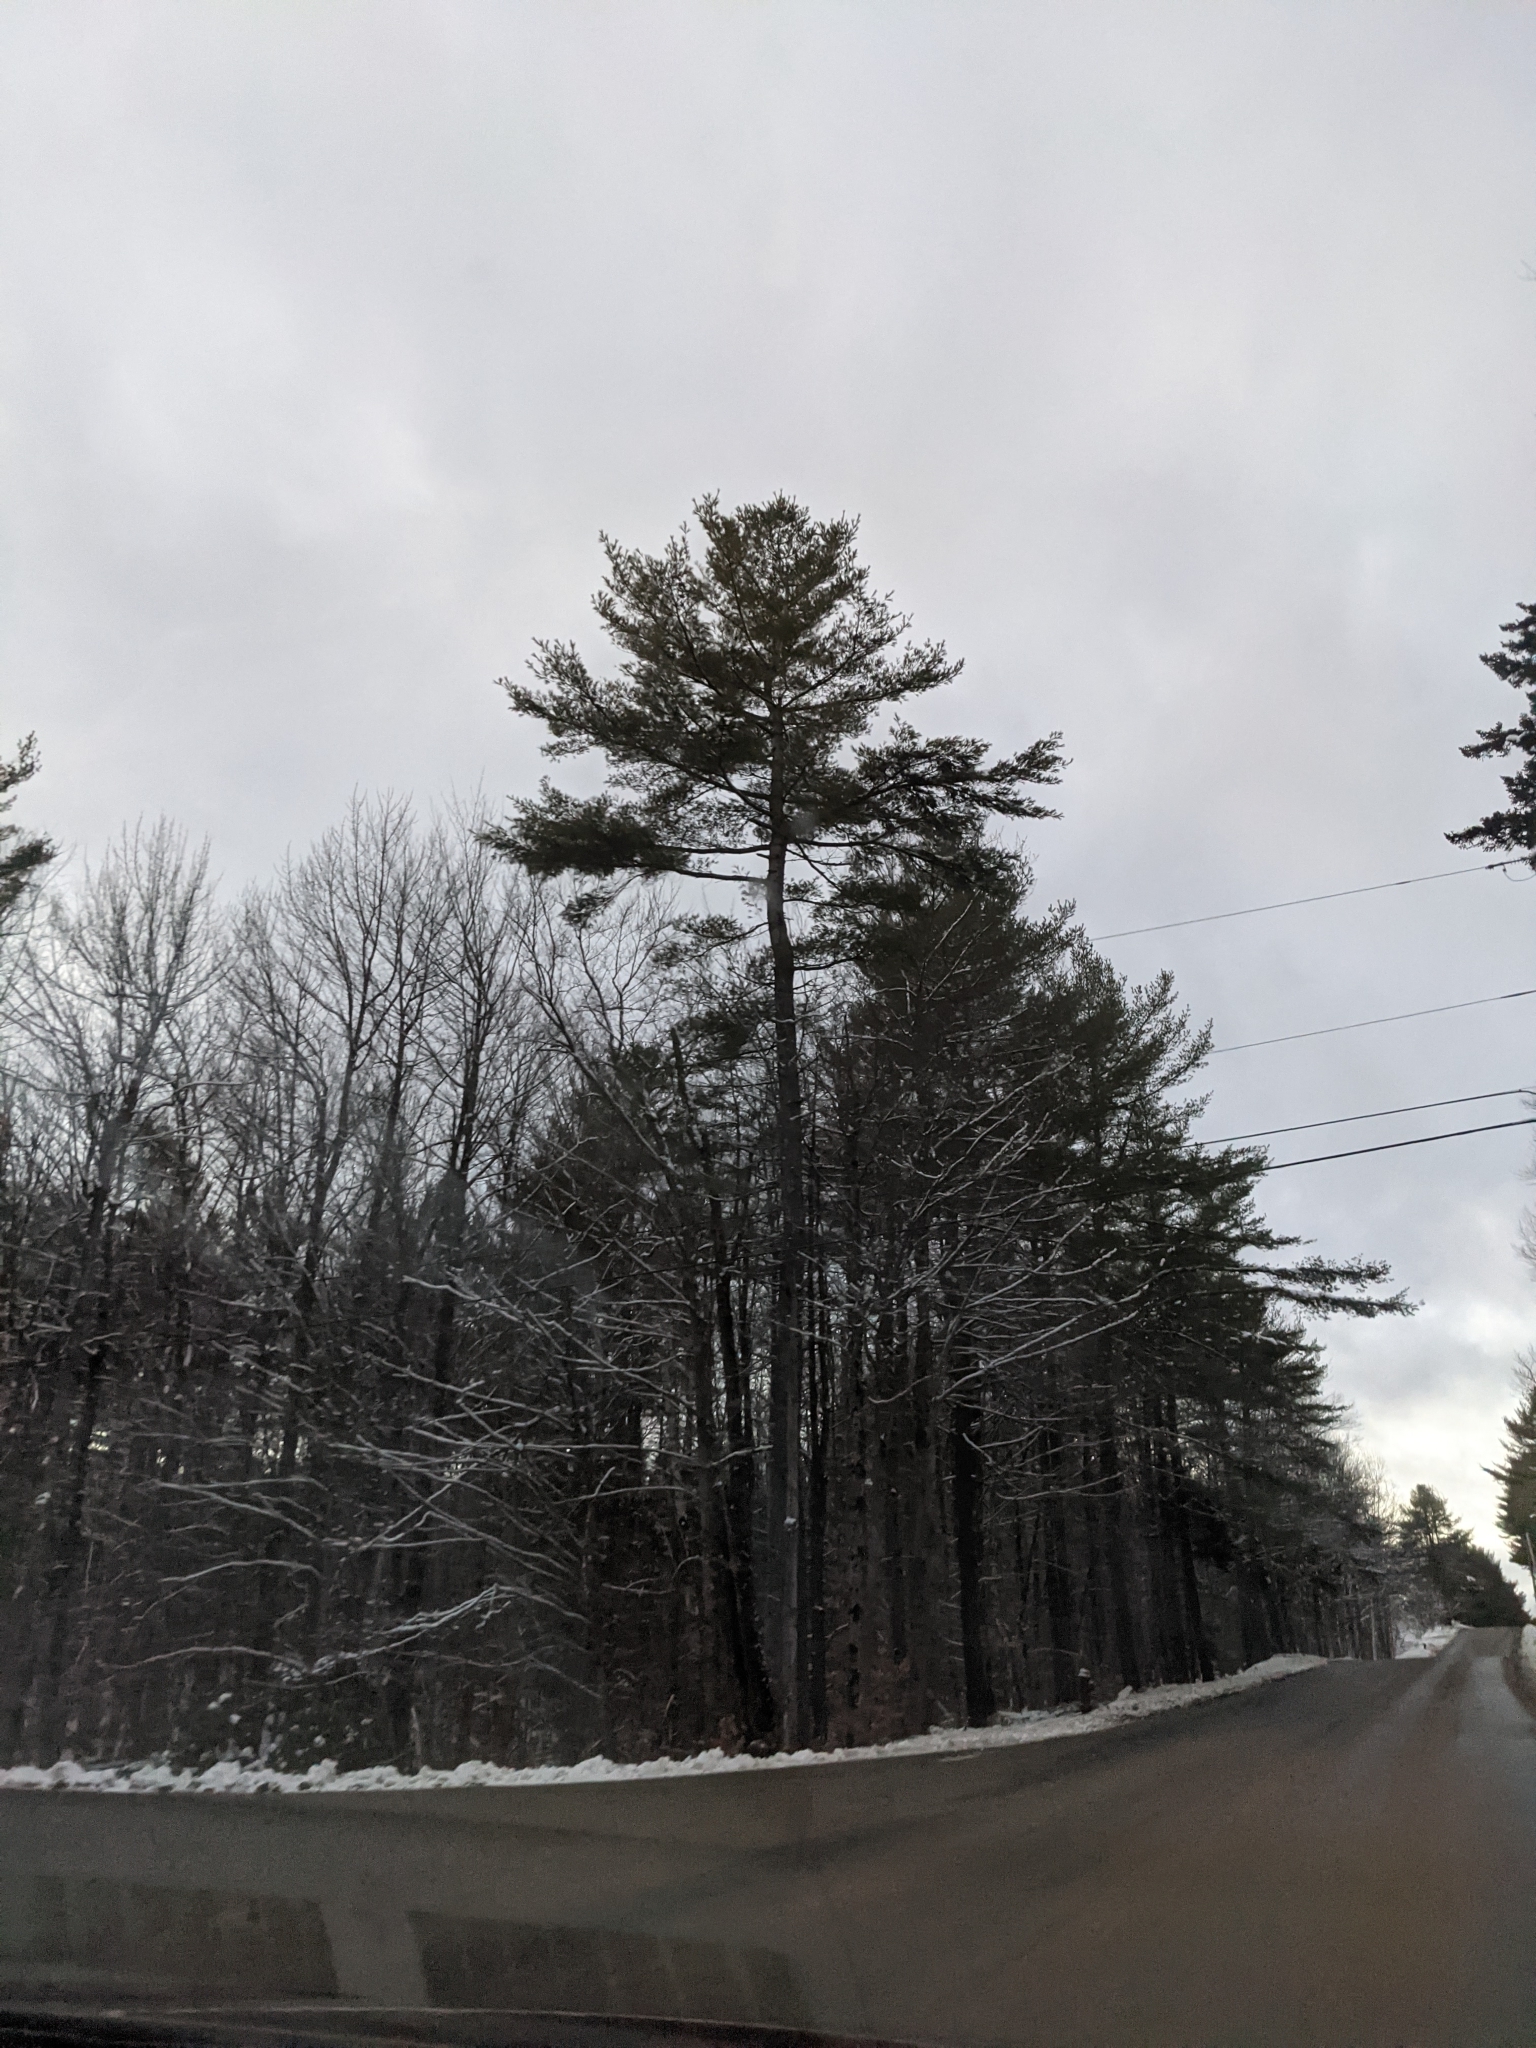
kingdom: Plantae
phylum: Tracheophyta
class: Pinopsida
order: Pinales
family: Pinaceae
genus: Pinus
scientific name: Pinus strobus
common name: Weymouth pine
